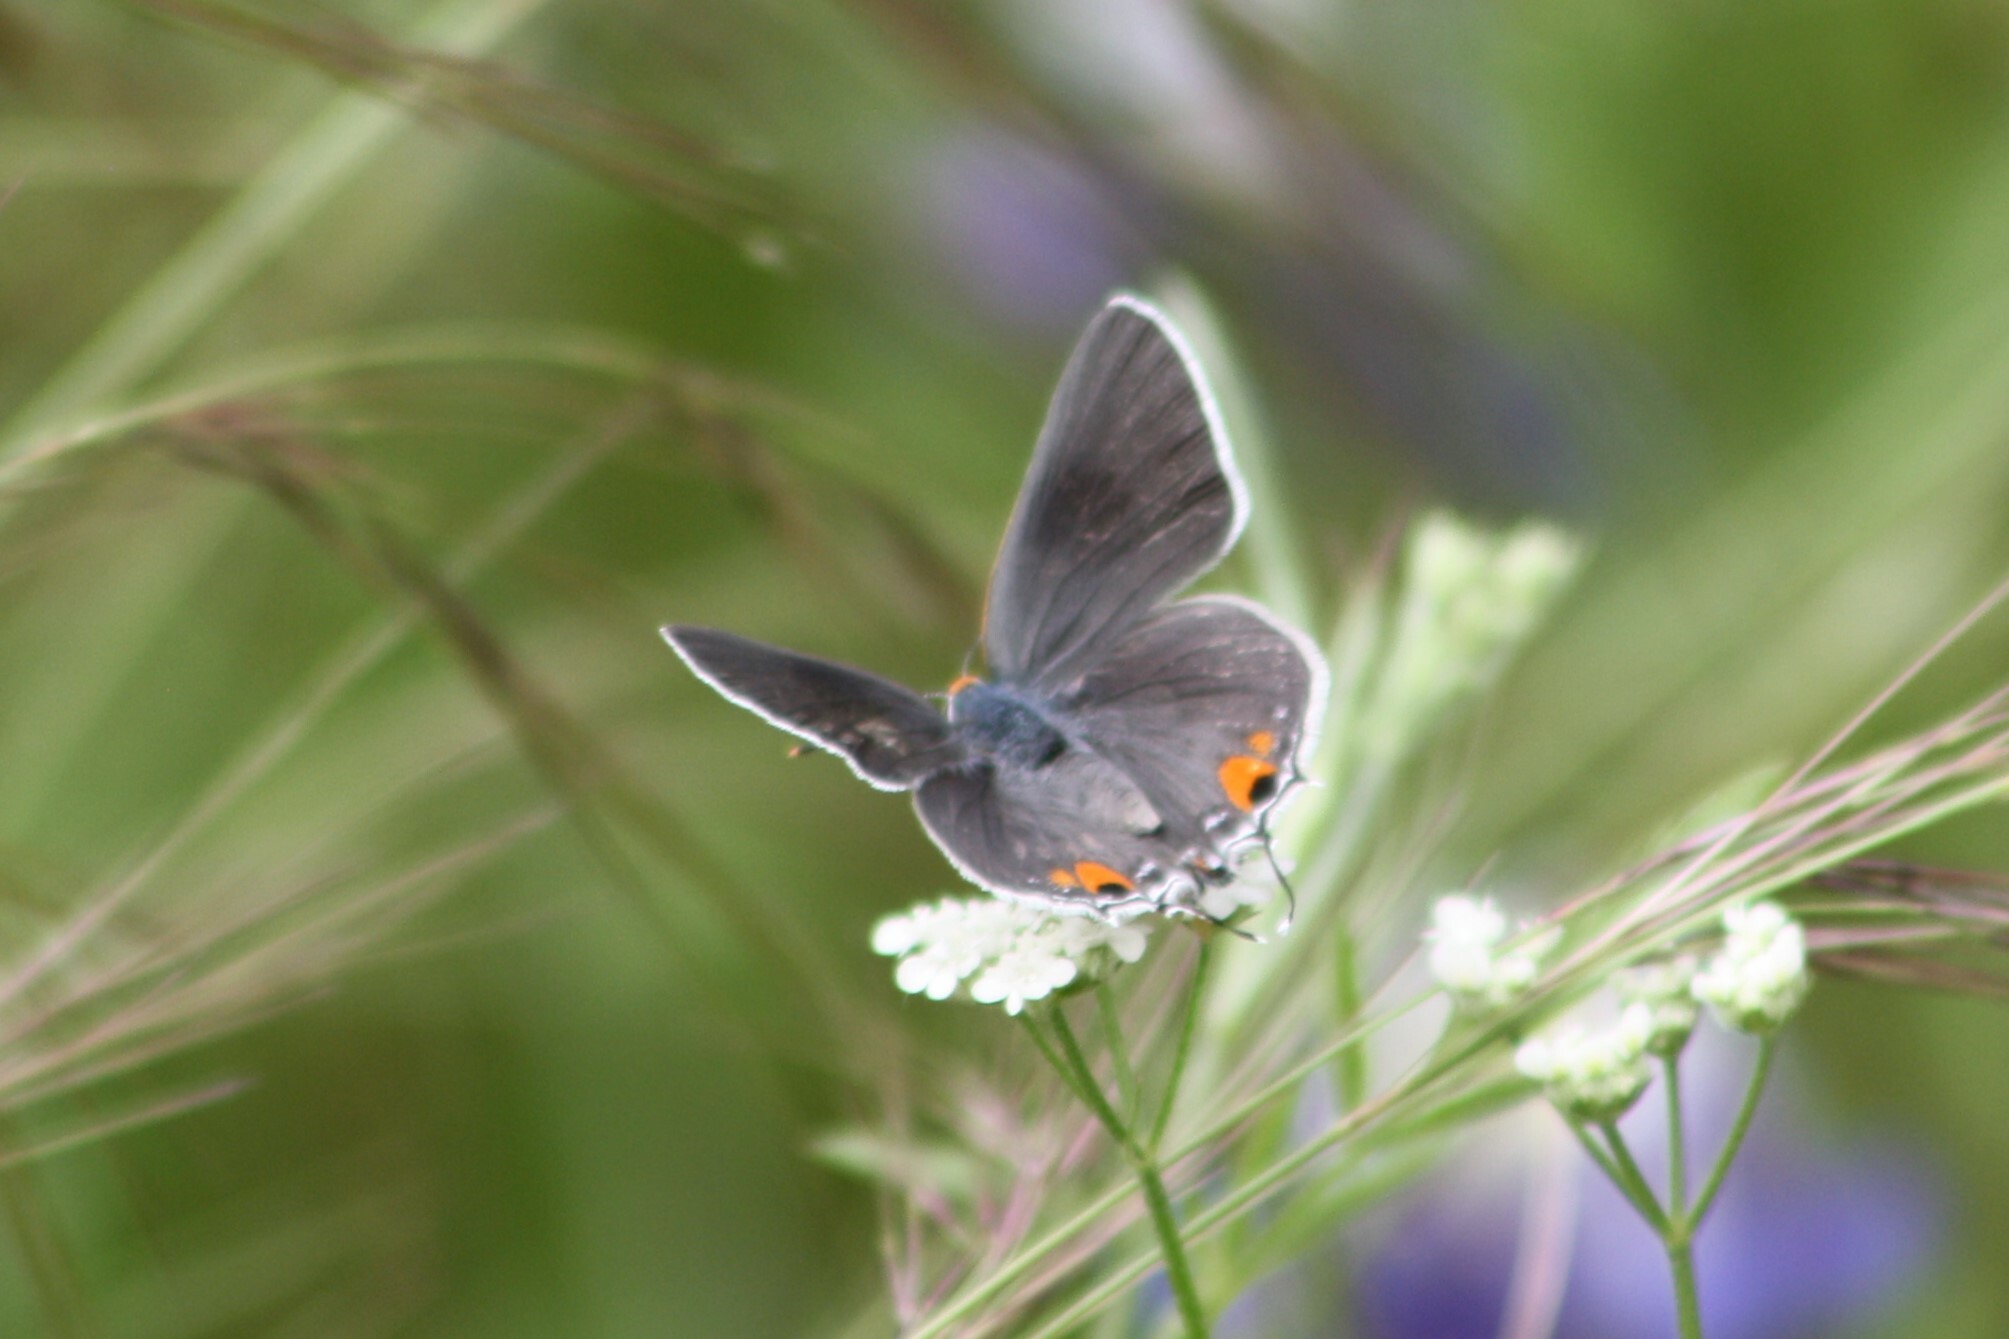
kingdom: Animalia
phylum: Arthropoda
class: Insecta
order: Lepidoptera
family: Lycaenidae
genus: Strymon
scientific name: Strymon melinus
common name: Gray hairstreak
